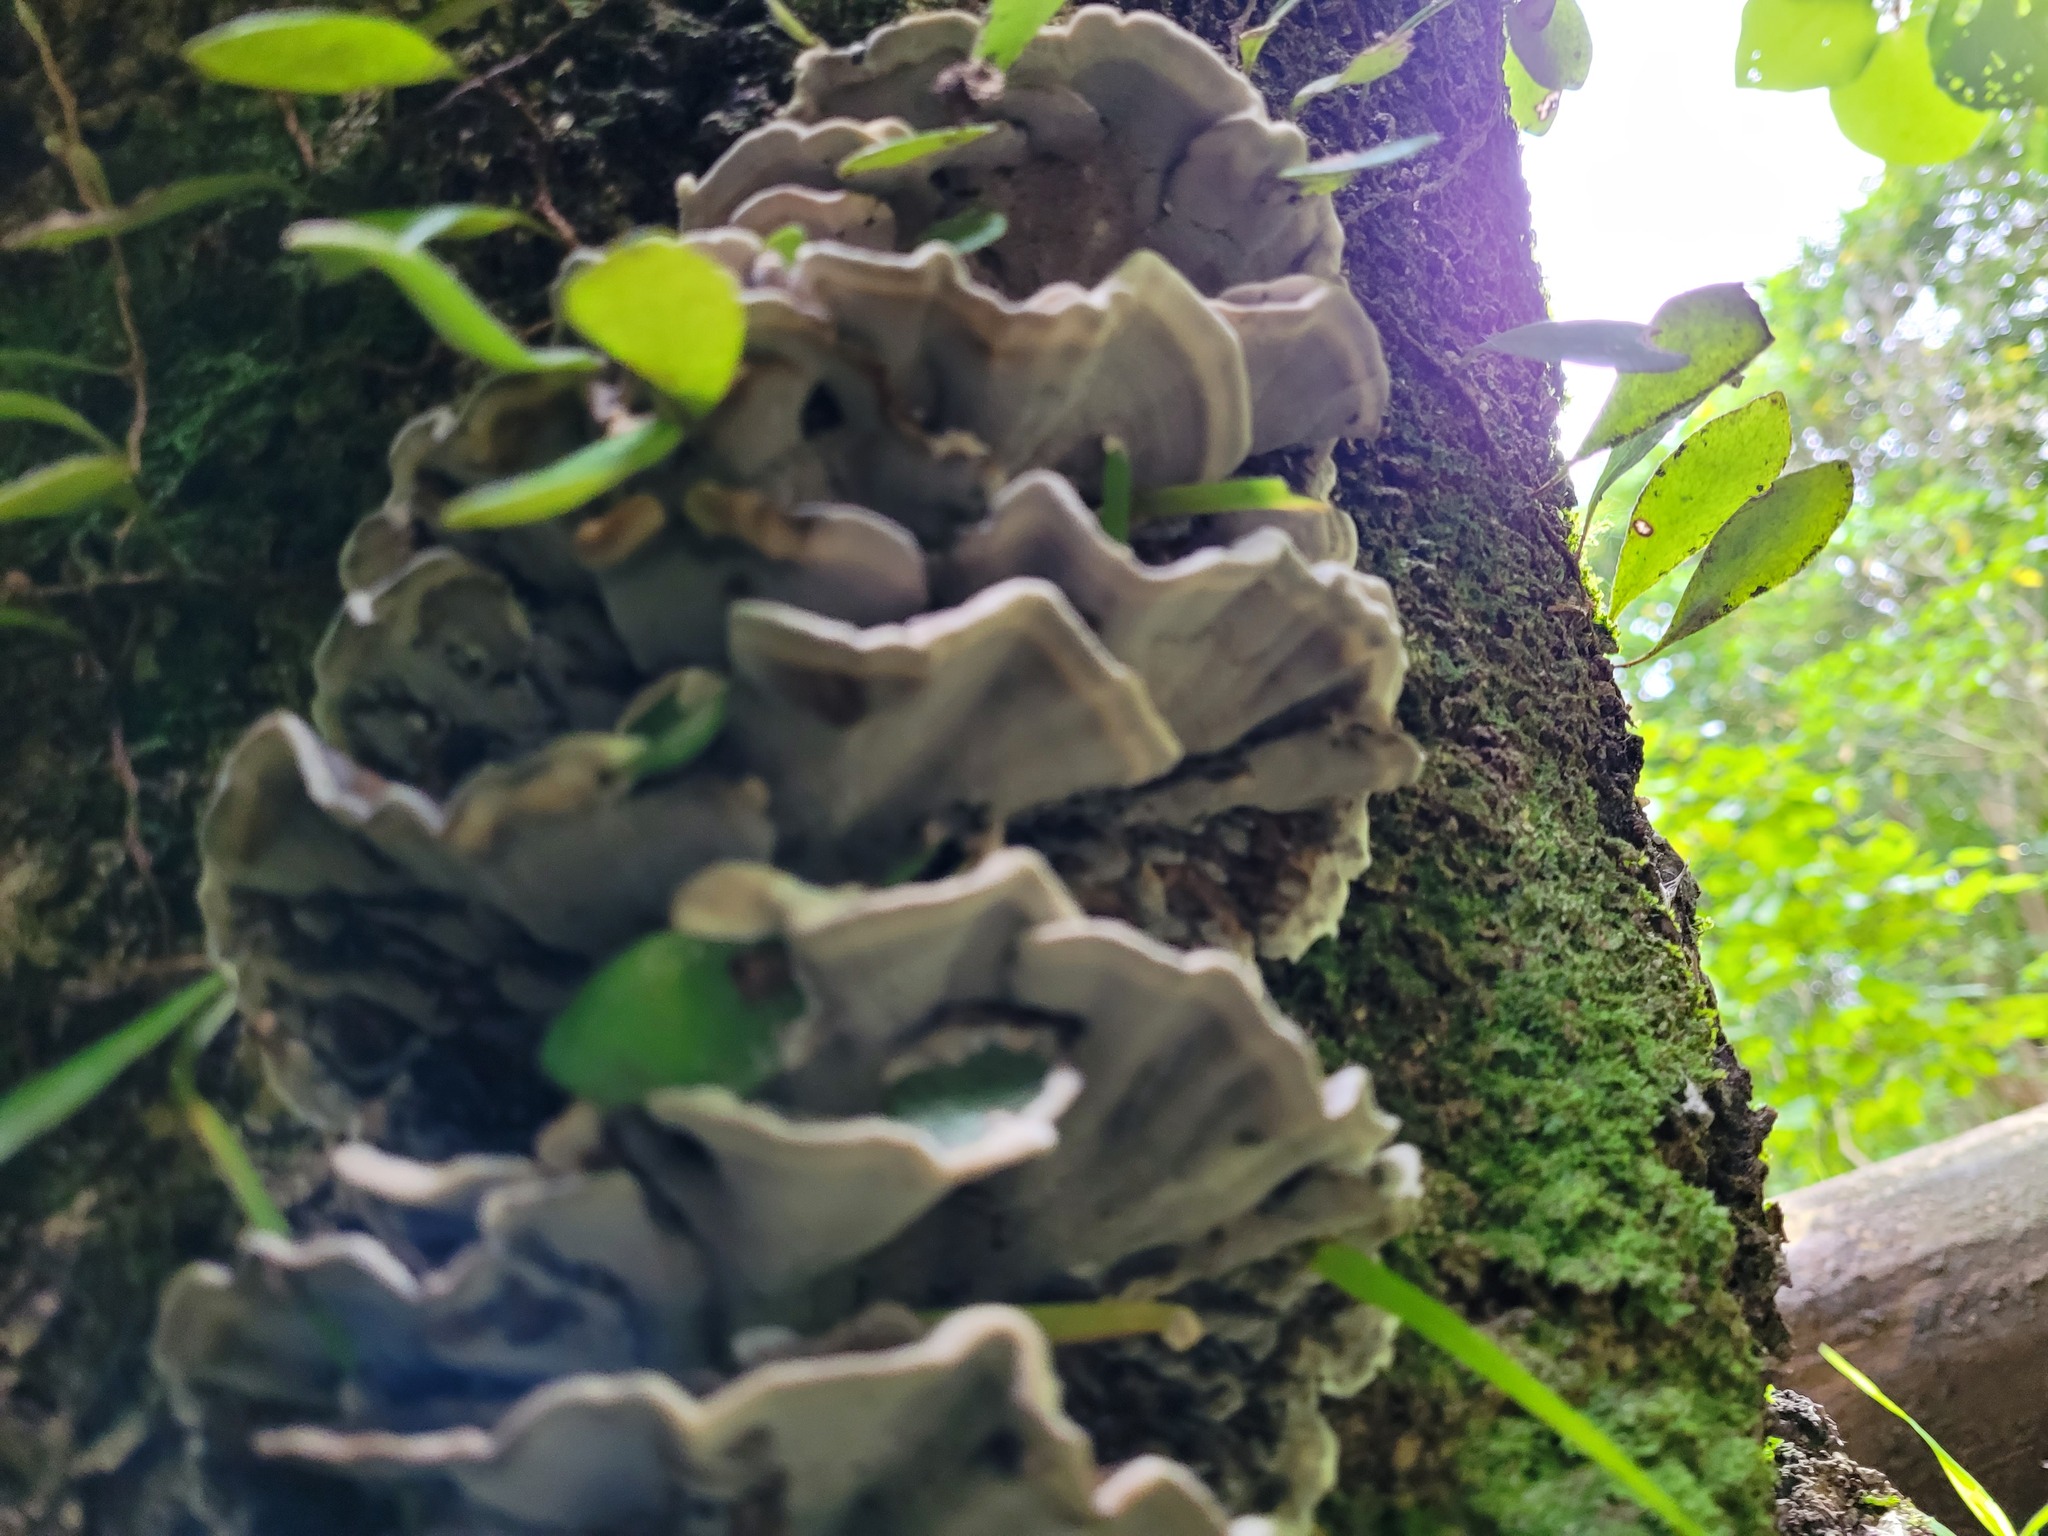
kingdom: Fungi
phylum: Basidiomycota
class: Agaricomycetes
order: Polyporales
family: Phanerochaetaceae
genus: Bjerkandera
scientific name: Bjerkandera adusta
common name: Smoky bracket
